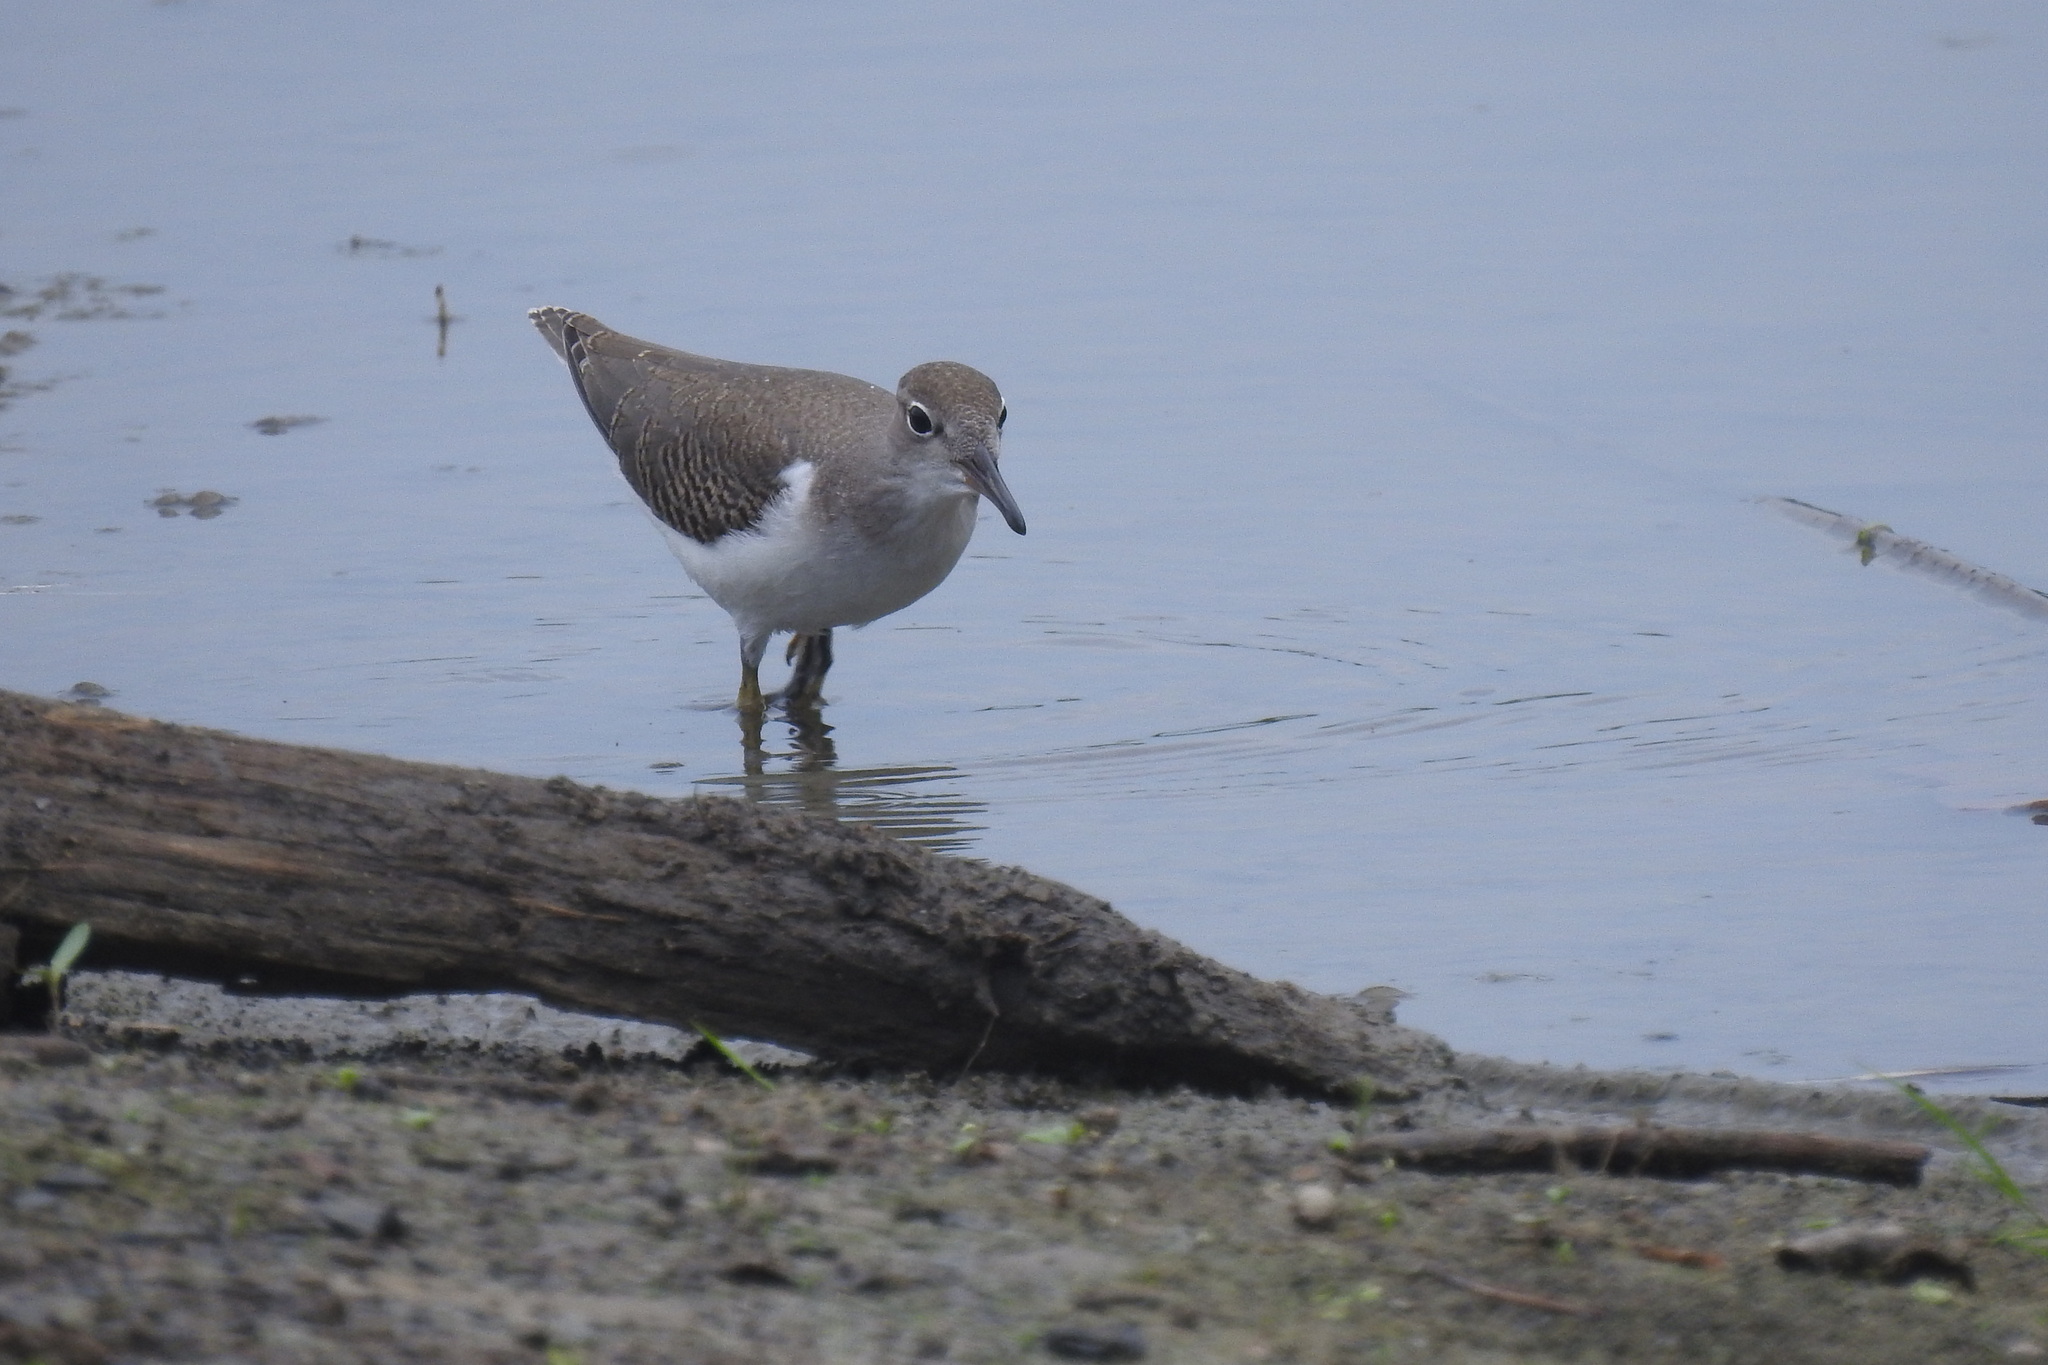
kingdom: Animalia
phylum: Chordata
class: Aves
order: Charadriiformes
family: Scolopacidae
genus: Actitis
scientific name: Actitis macularius
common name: Spotted sandpiper
